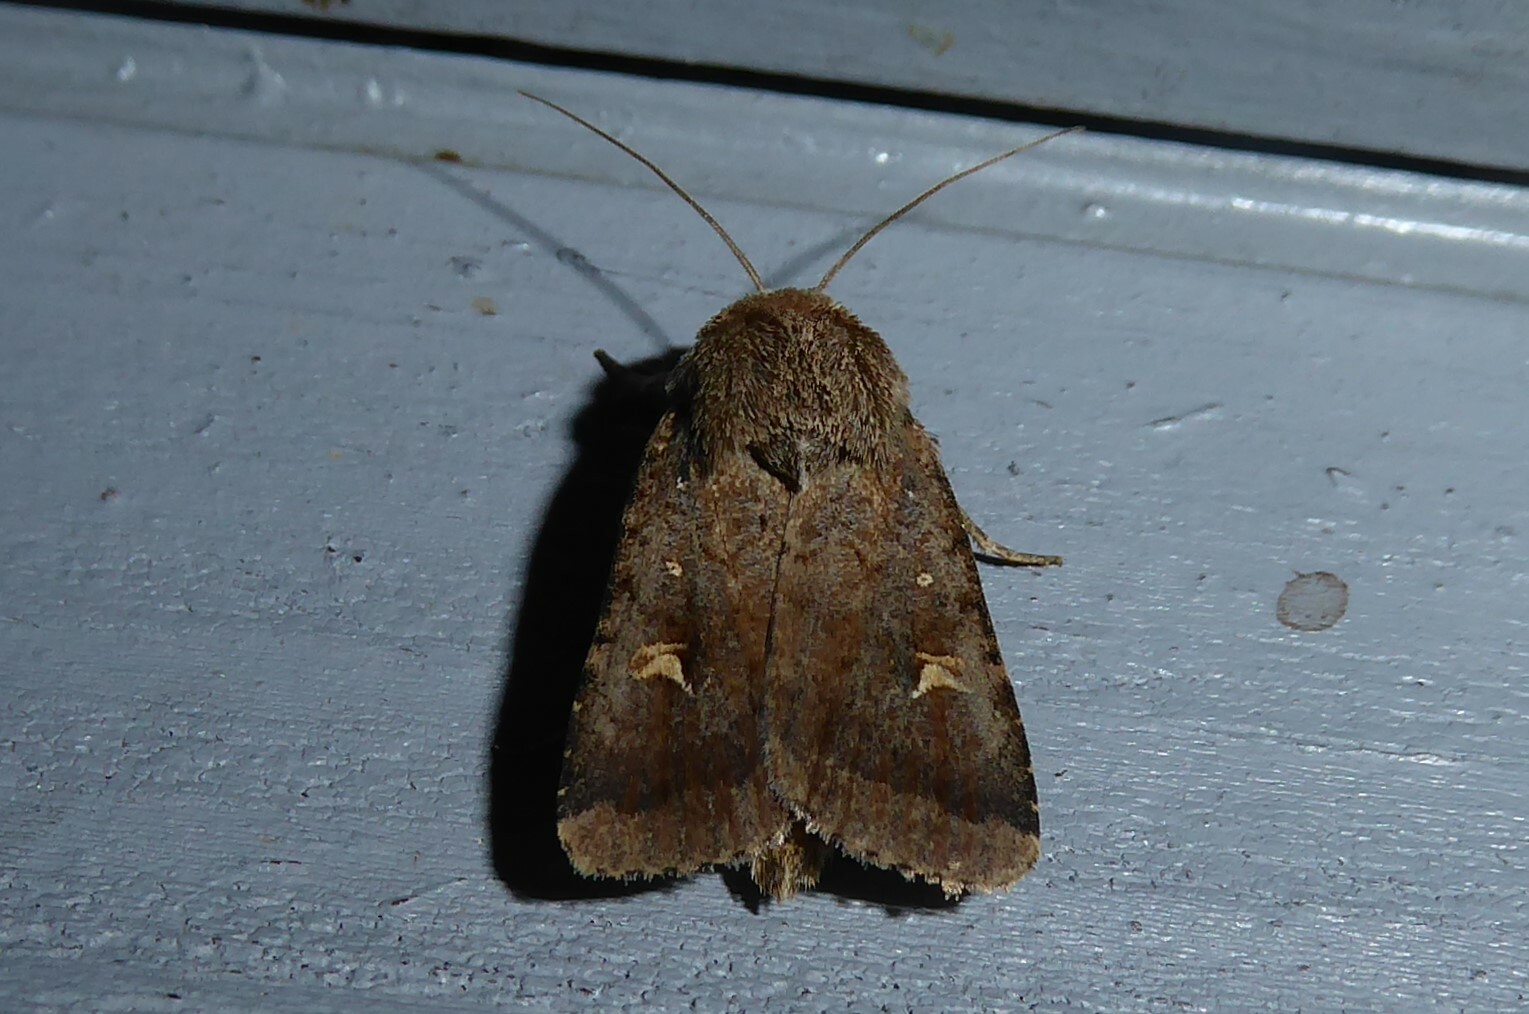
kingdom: Animalia
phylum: Arthropoda
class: Insecta
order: Lepidoptera
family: Noctuidae
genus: Proteuxoa
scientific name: Proteuxoa tetronycha
